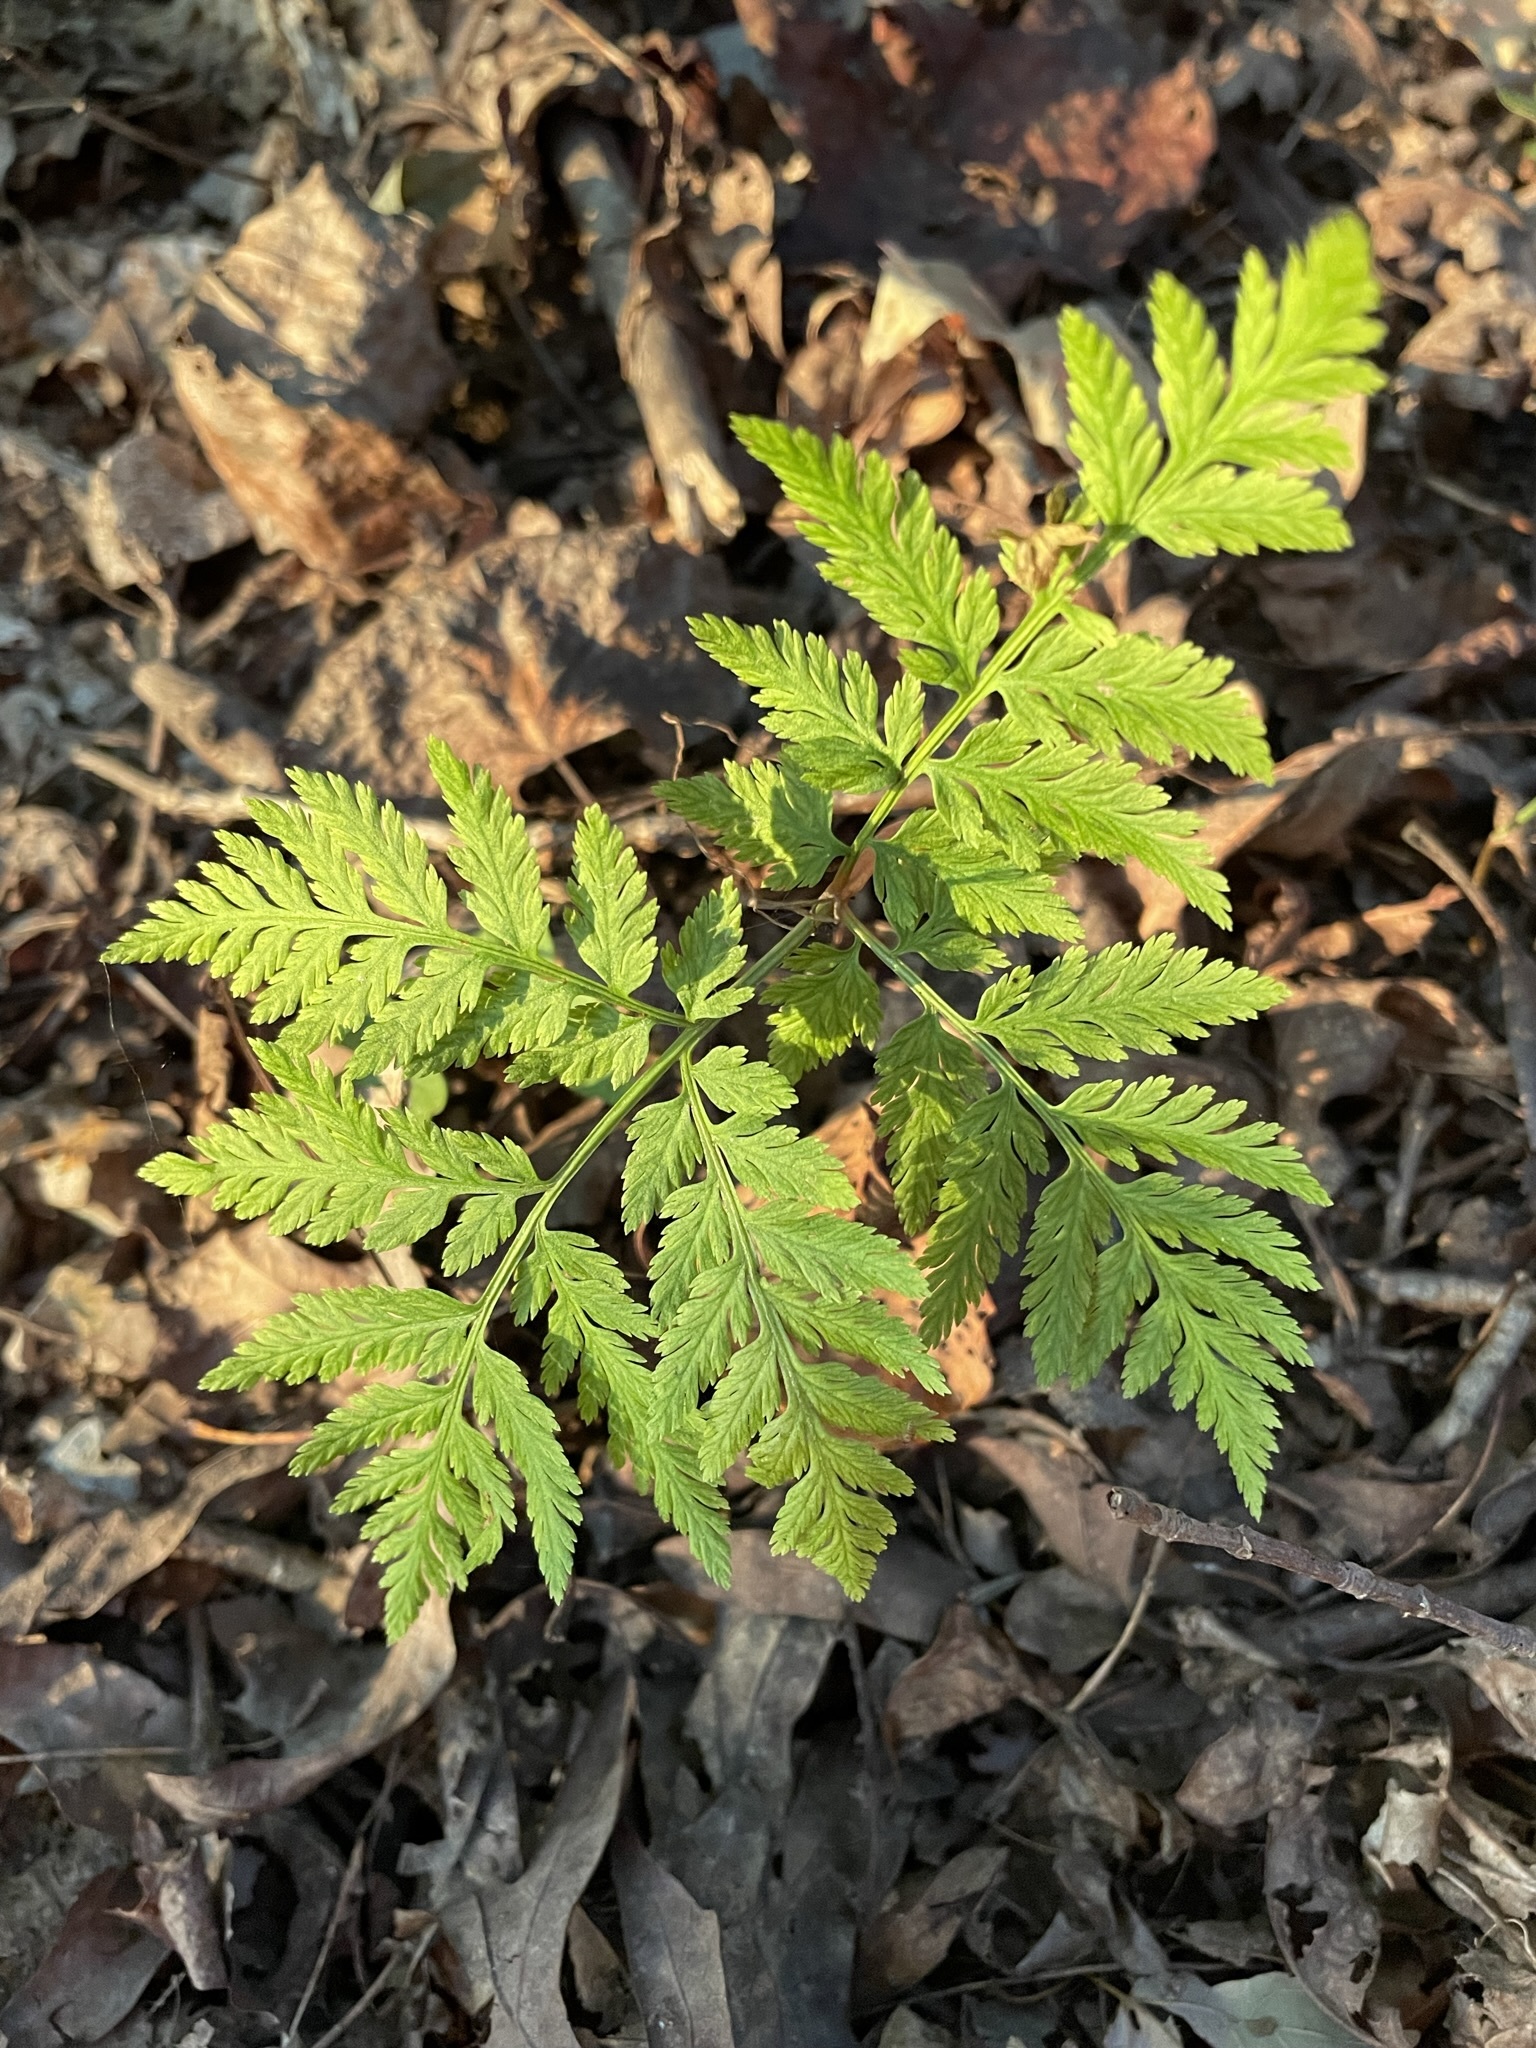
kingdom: Plantae
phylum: Tracheophyta
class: Polypodiopsida
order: Ophioglossales
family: Ophioglossaceae
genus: Botrypus
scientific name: Botrypus virginianus
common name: Common grapefern
